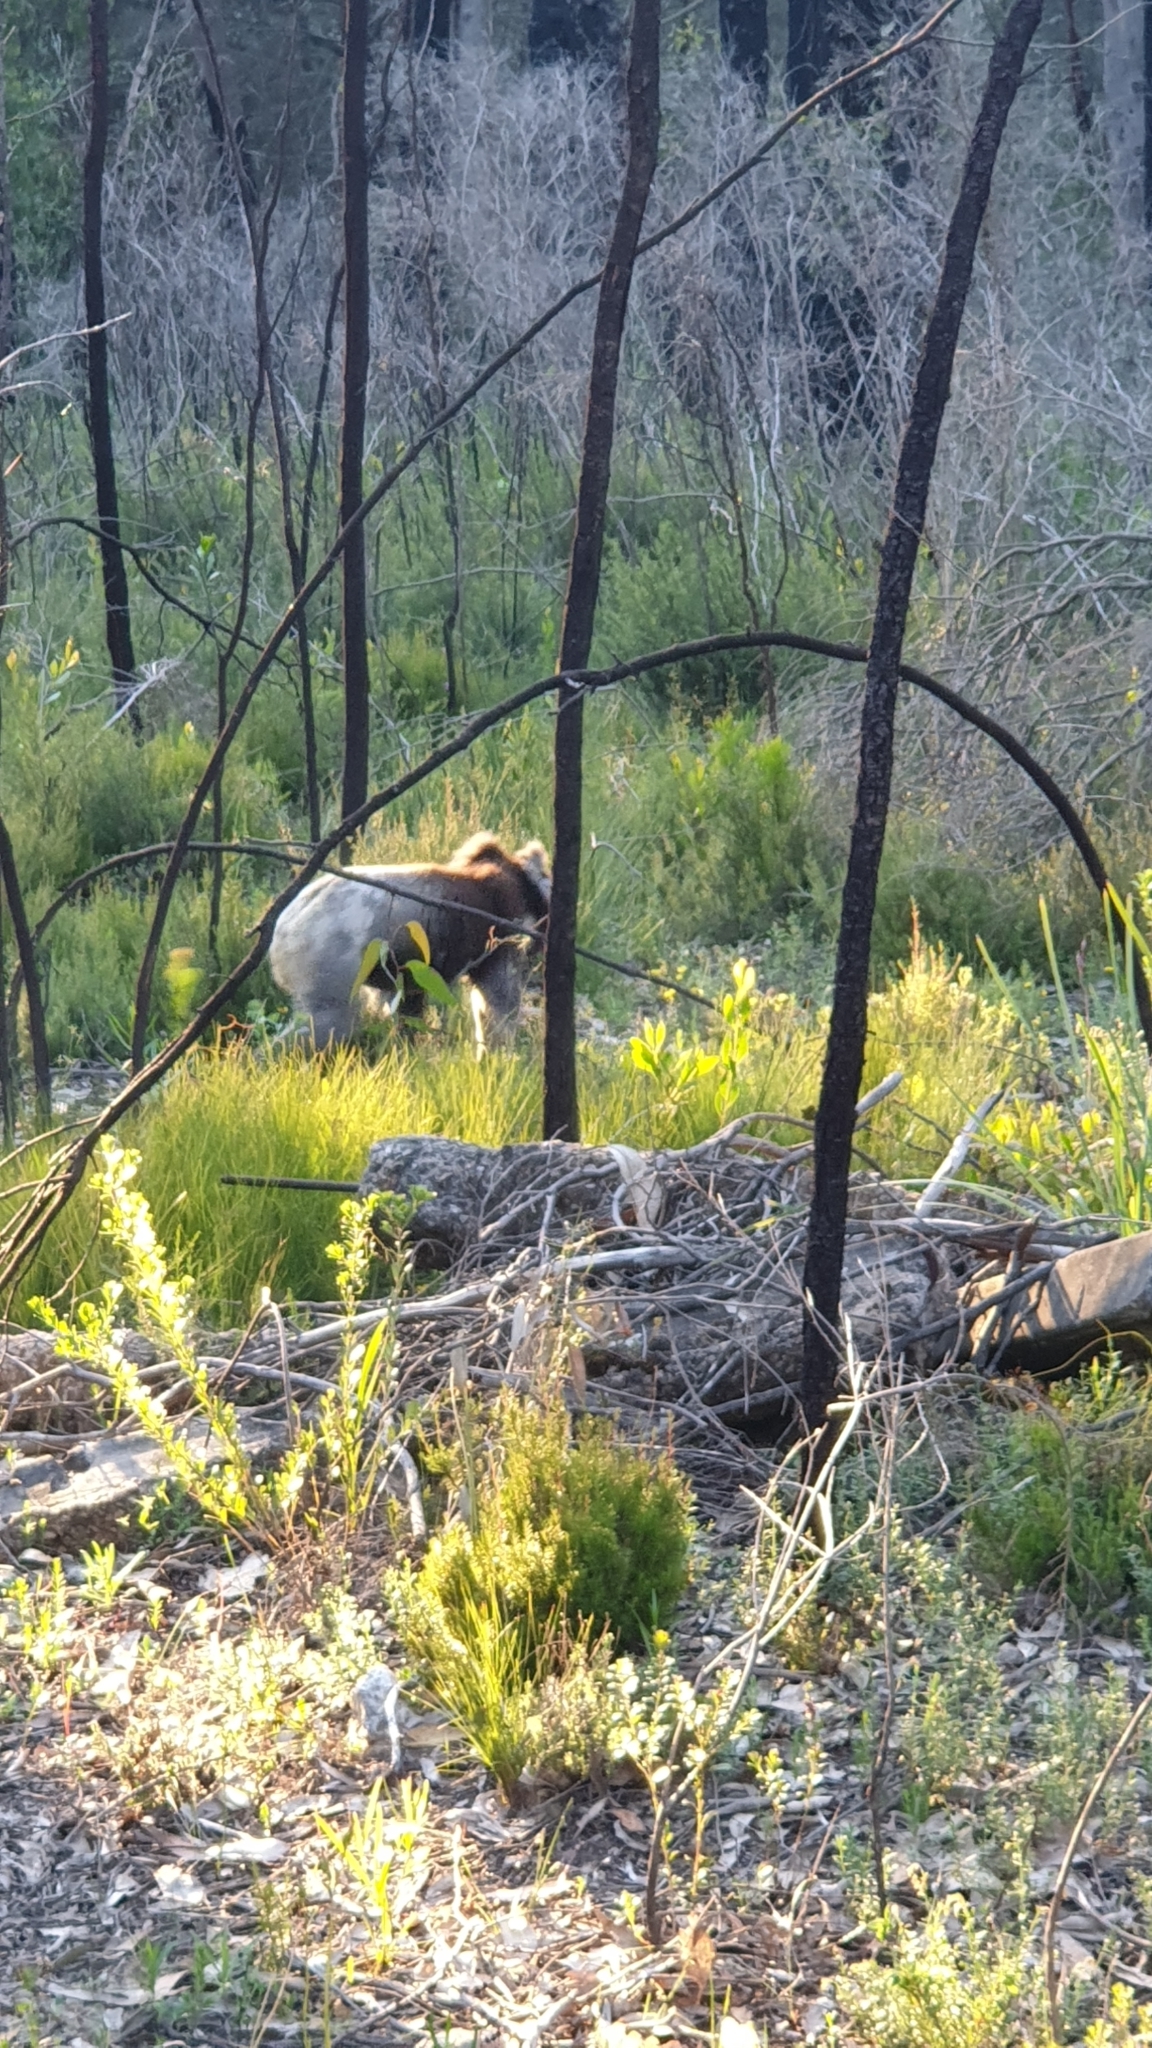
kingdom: Animalia
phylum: Chordata
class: Mammalia
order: Diprotodontia
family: Phascolarctidae
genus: Phascolarctos
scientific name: Phascolarctos cinereus
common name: Koala
